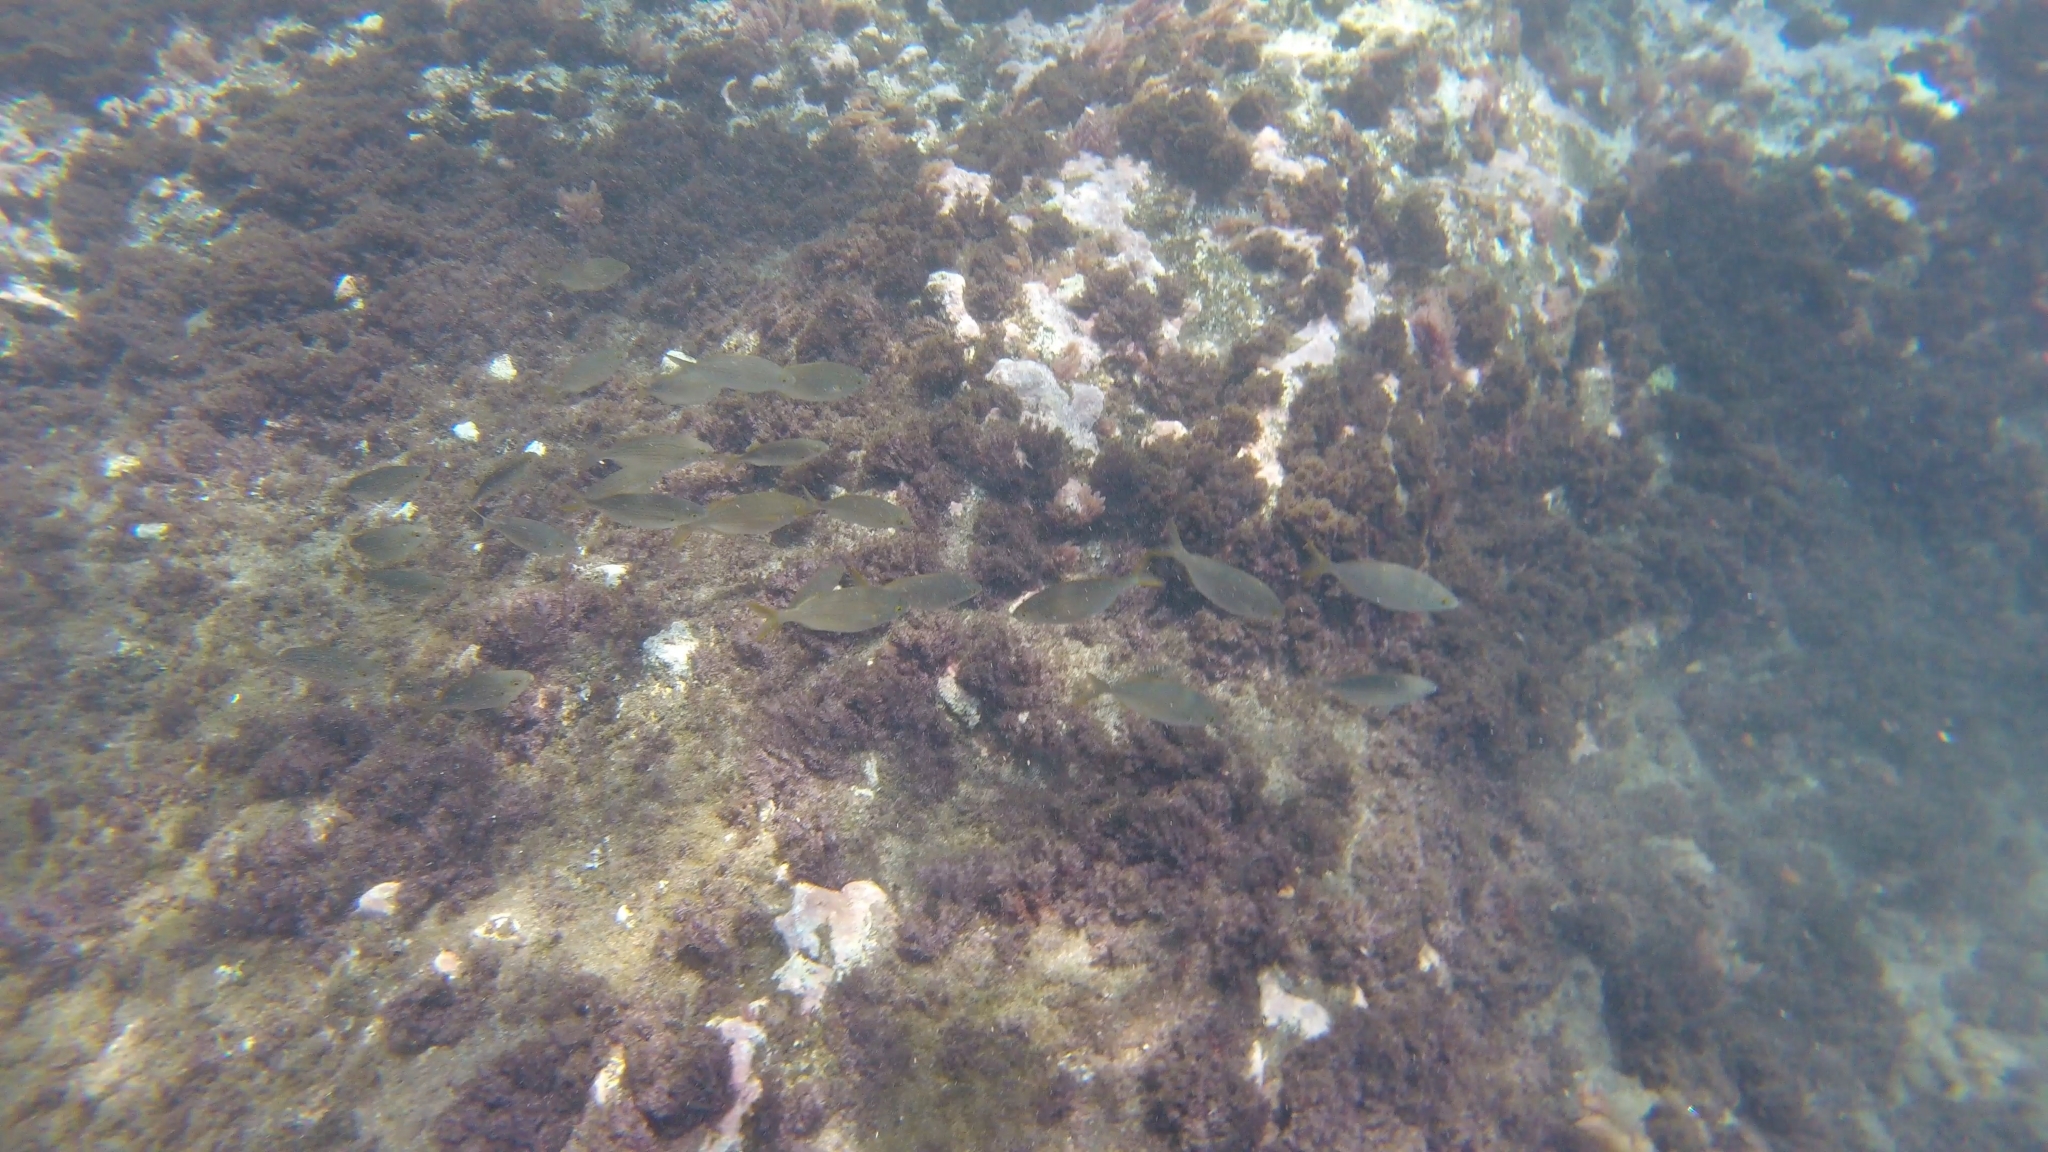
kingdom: Animalia
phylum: Chordata
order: Perciformes
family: Sparidae
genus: Sarpa
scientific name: Sarpa salpa
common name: Salema
